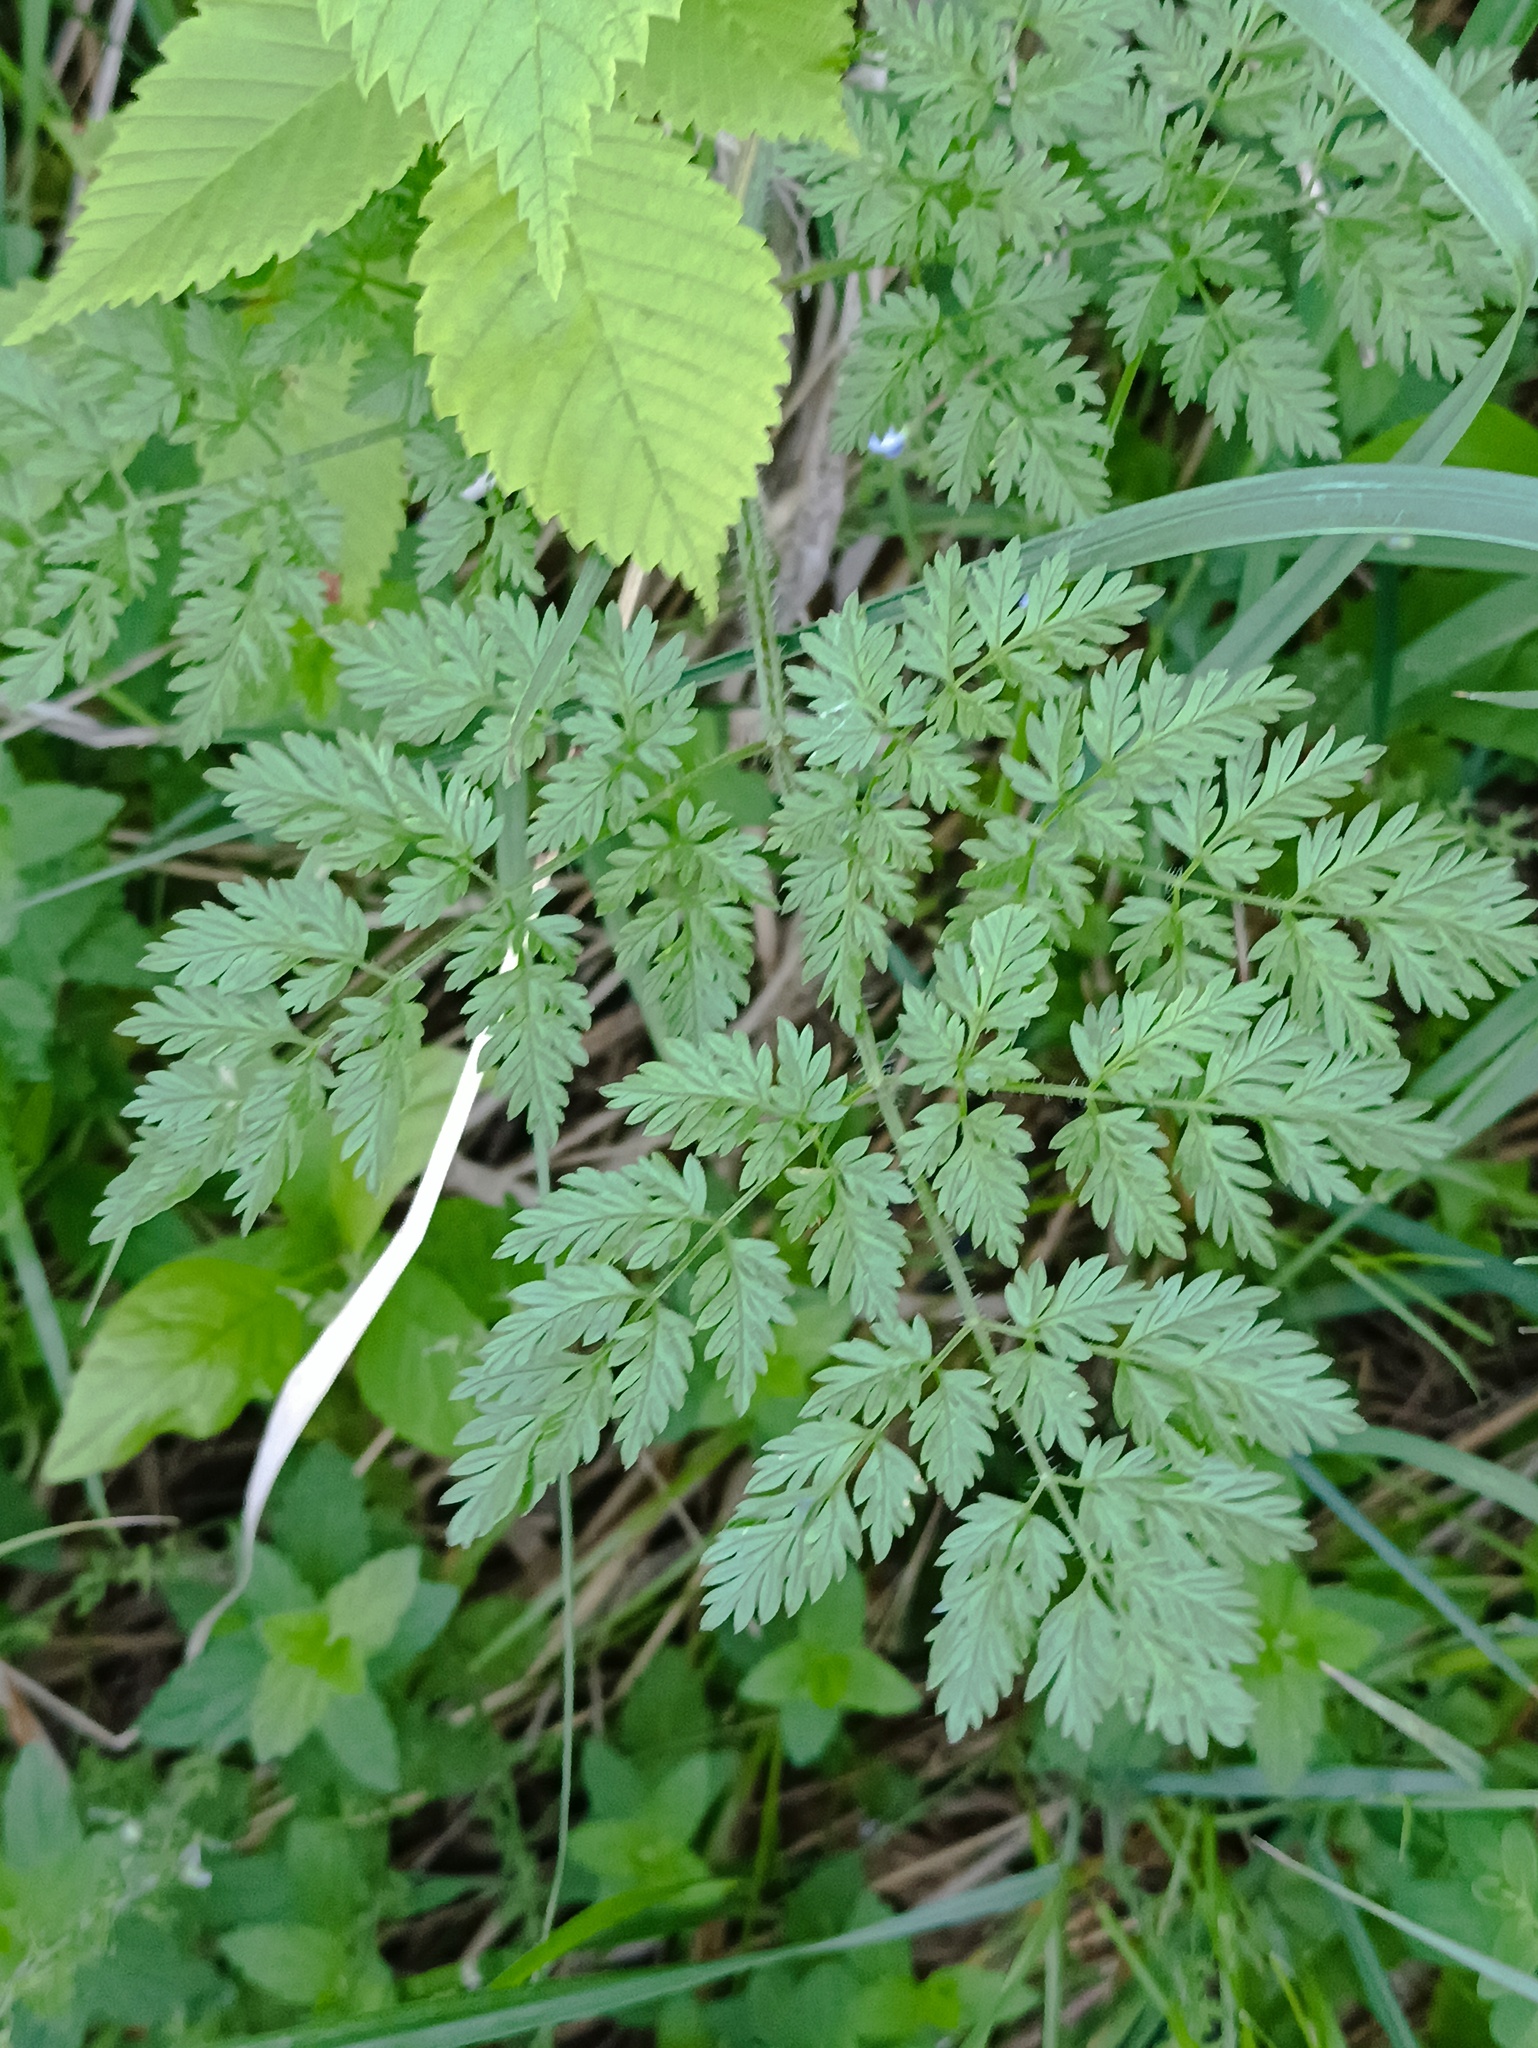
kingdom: Plantae
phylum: Tracheophyta
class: Magnoliopsida
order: Apiales
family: Apiaceae
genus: Chaerophyllum
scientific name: Chaerophyllum bulbosum
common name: Bulbous chervil
